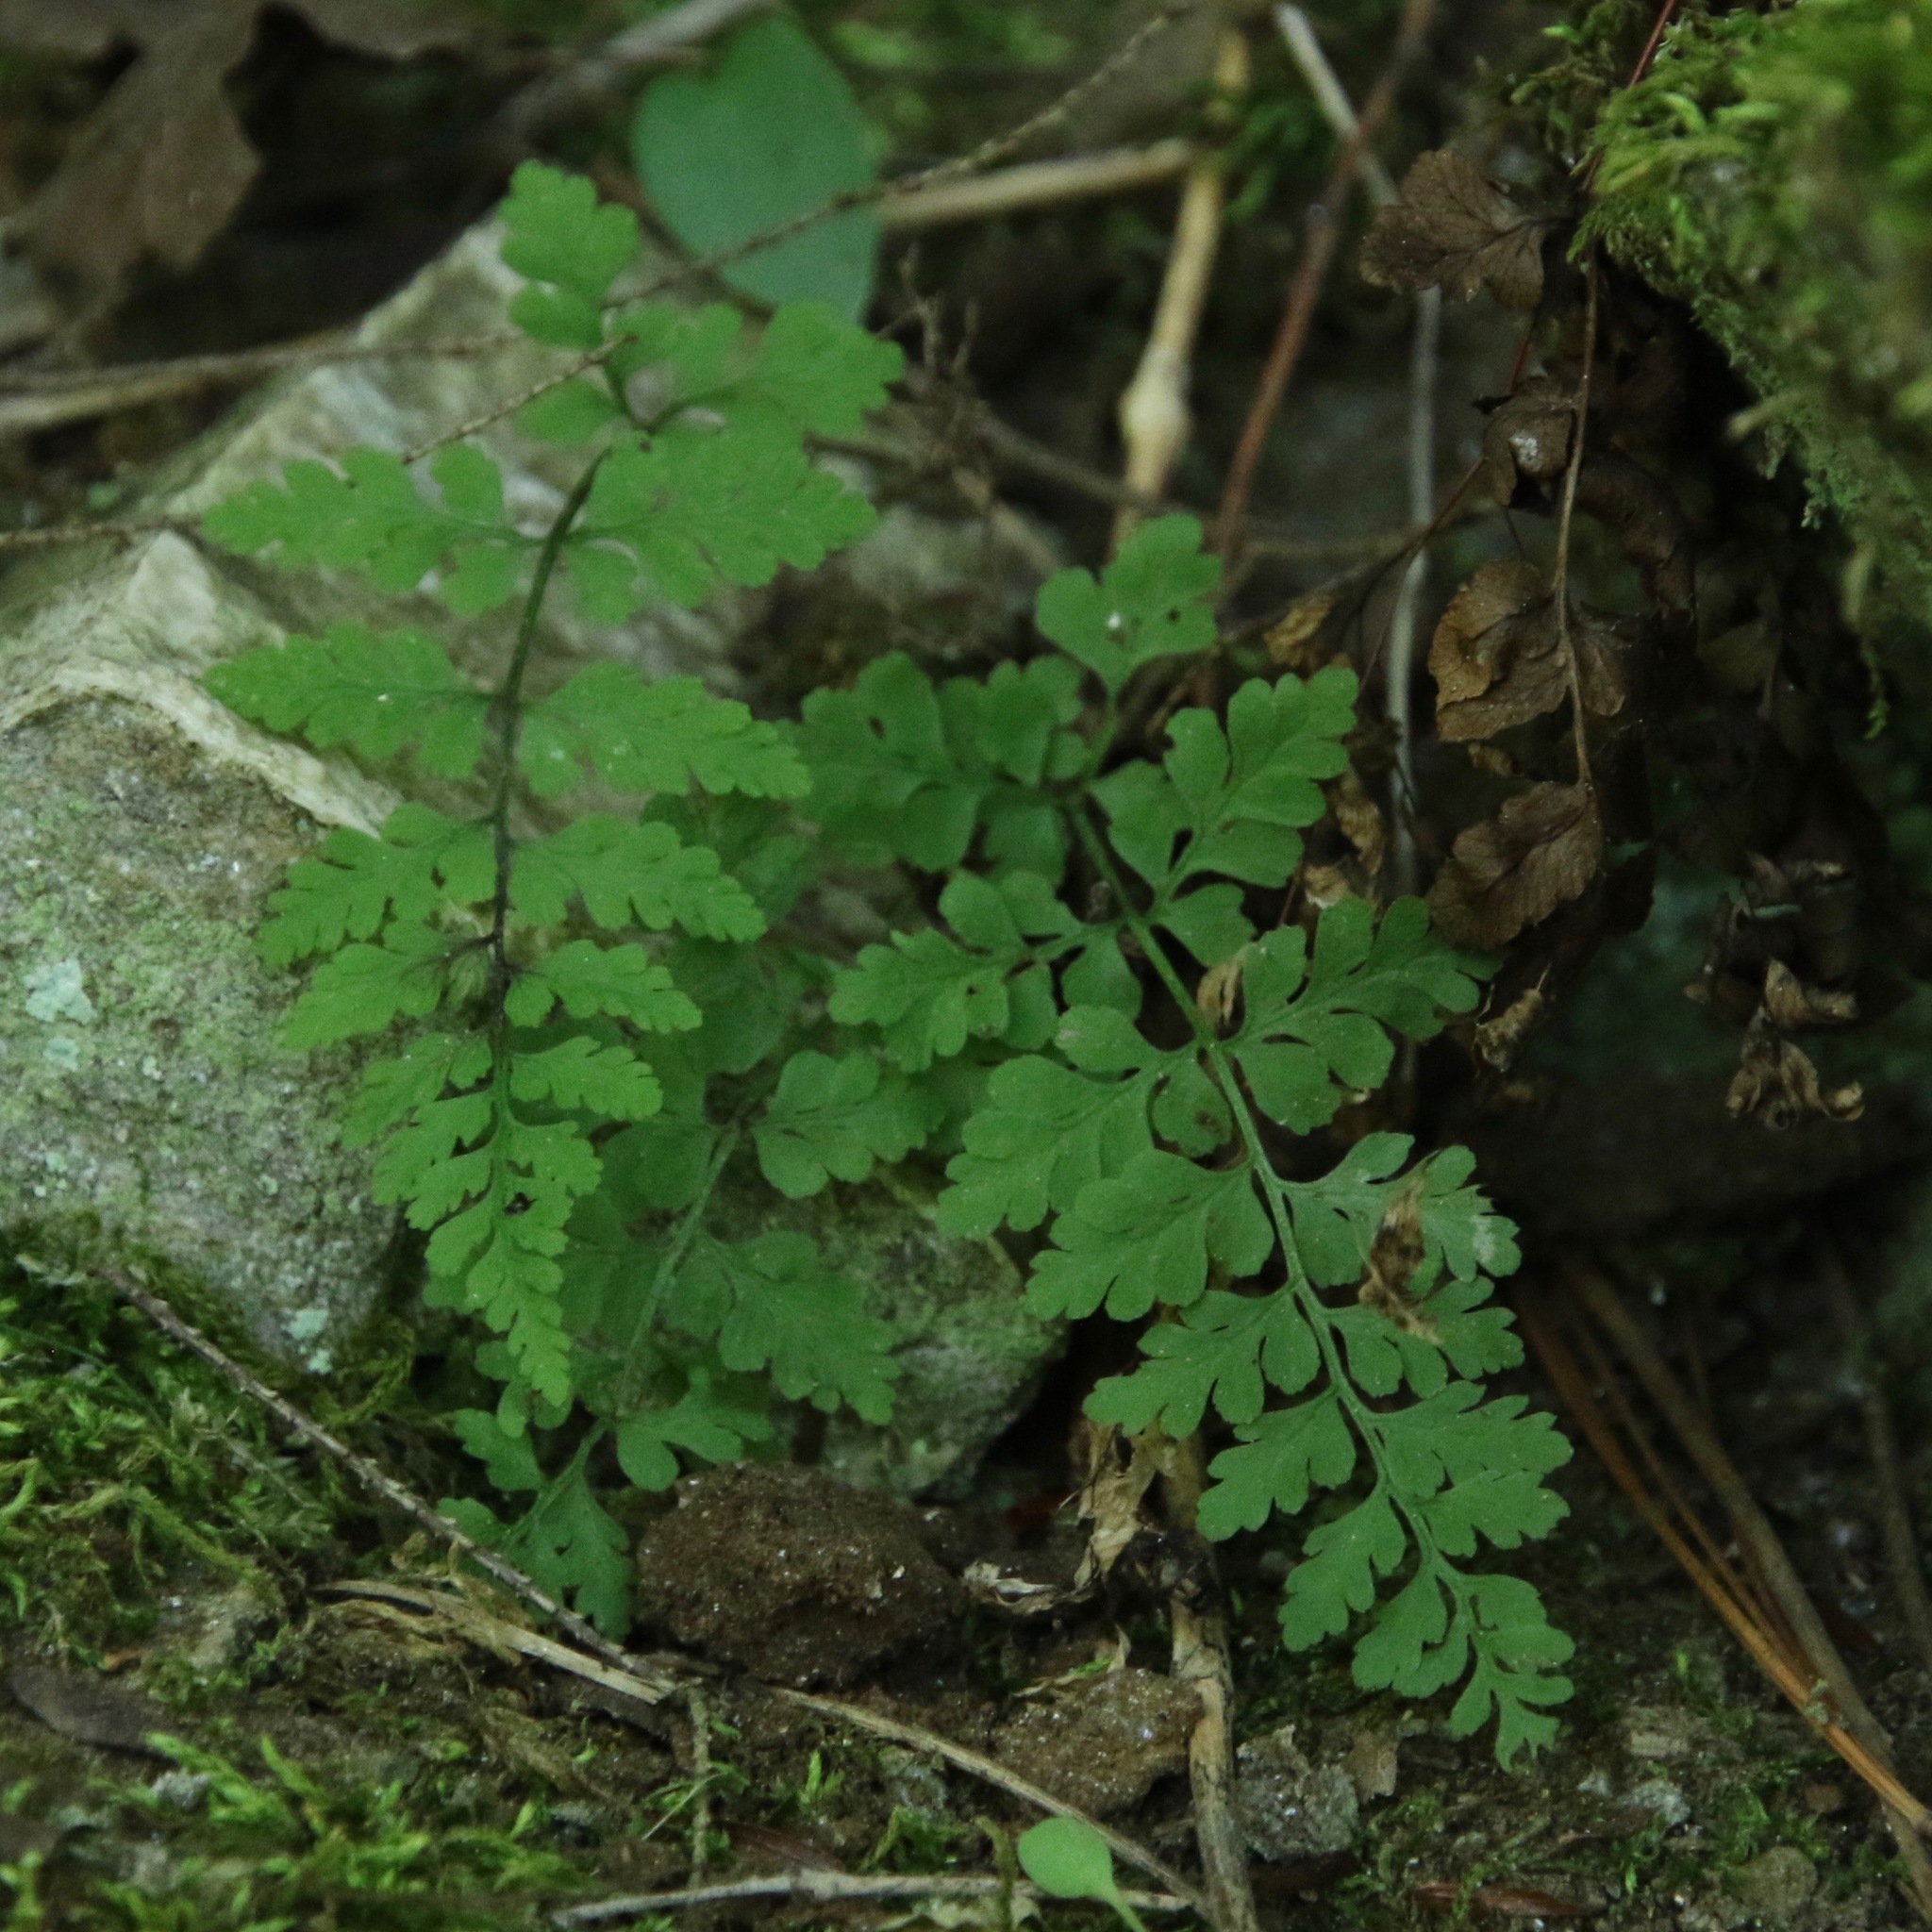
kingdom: Plantae
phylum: Tracheophyta
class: Polypodiopsida
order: Polypodiales
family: Cystopteridaceae
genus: Cystopteris
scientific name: Cystopteris tenuis
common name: Mackay's brittle fern
